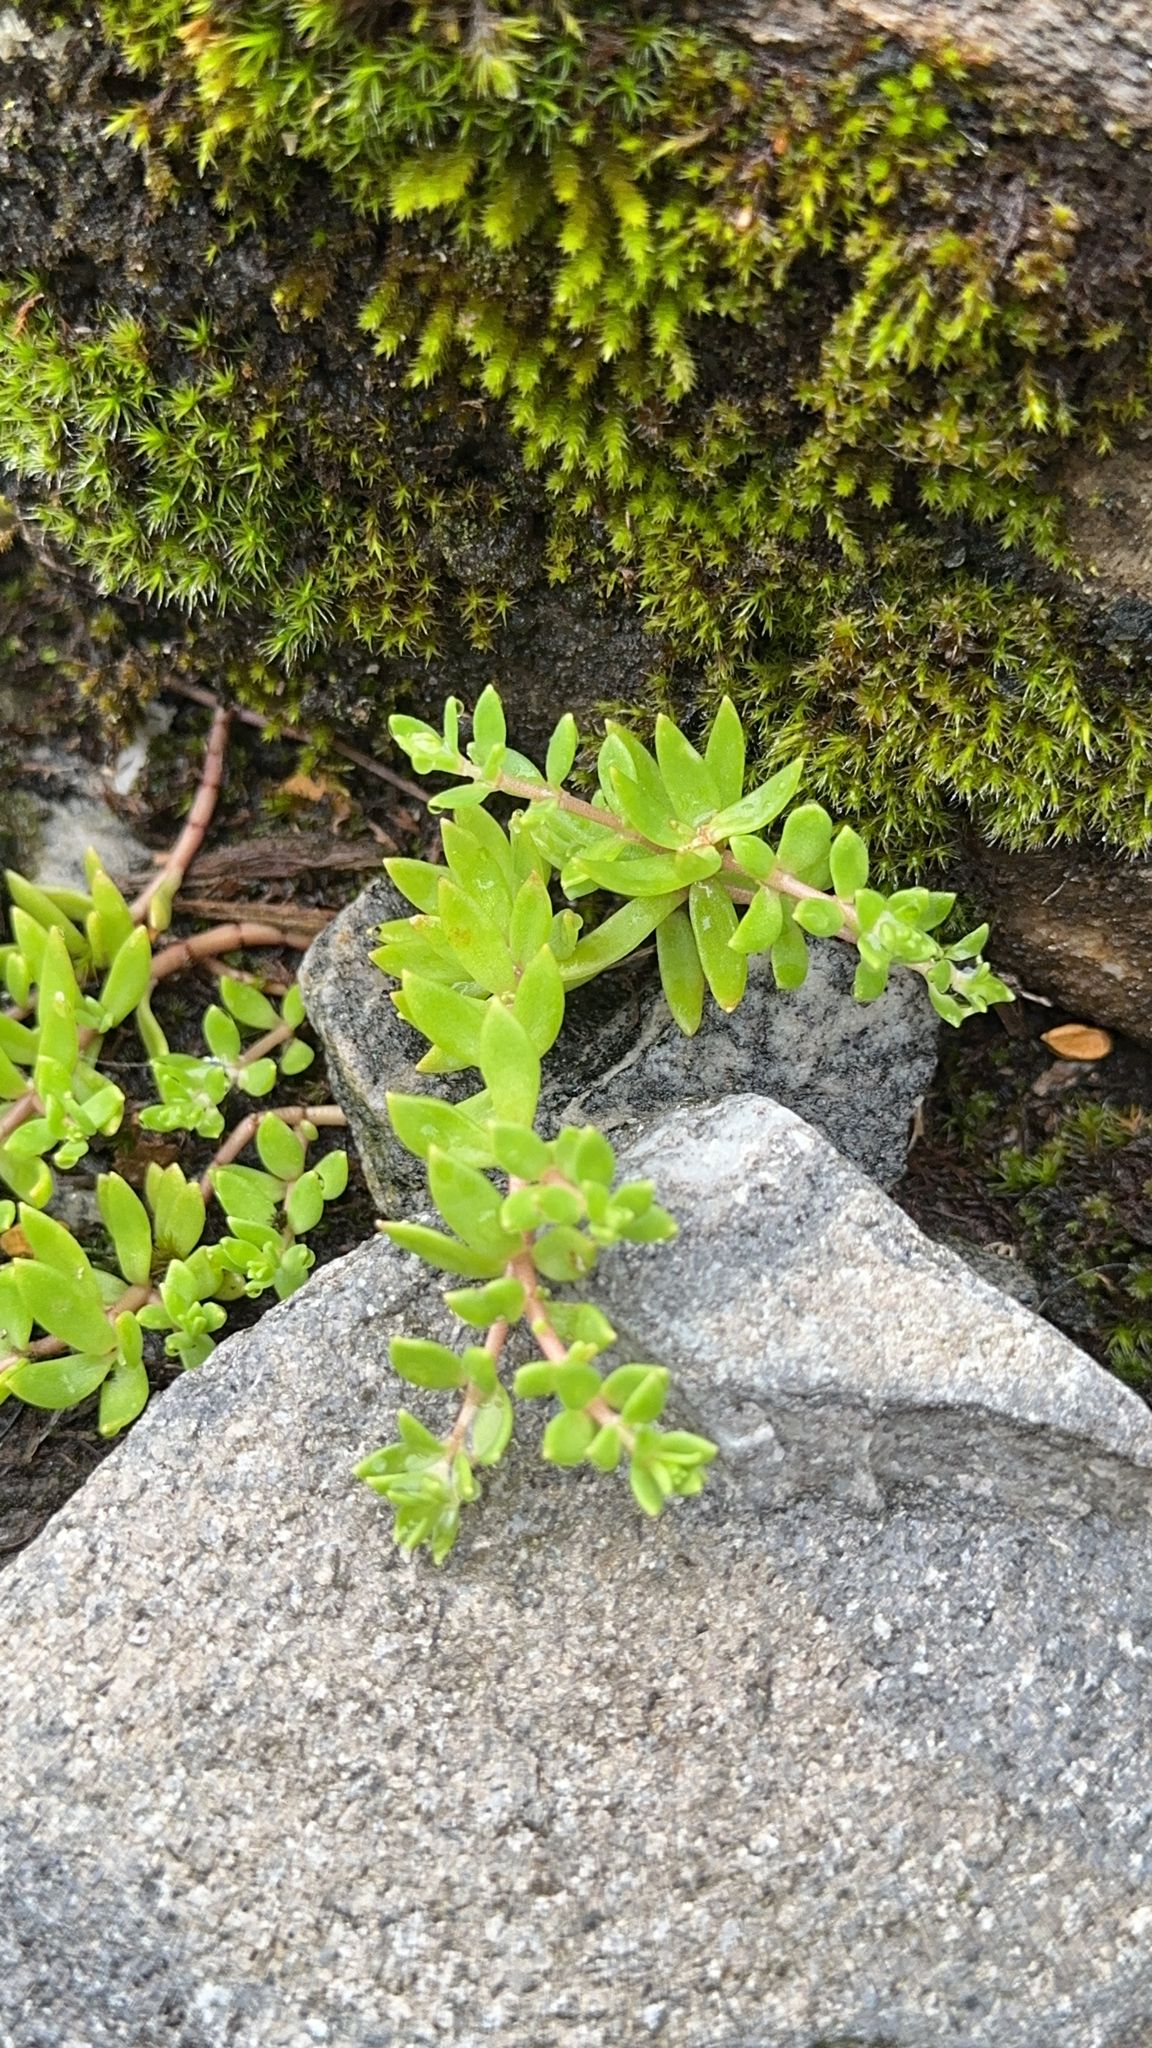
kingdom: Plantae
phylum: Tracheophyta
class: Magnoliopsida
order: Saxifragales
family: Crassulaceae
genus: Sedum
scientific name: Sedum sarmentosum
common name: Stringy stonecrop
